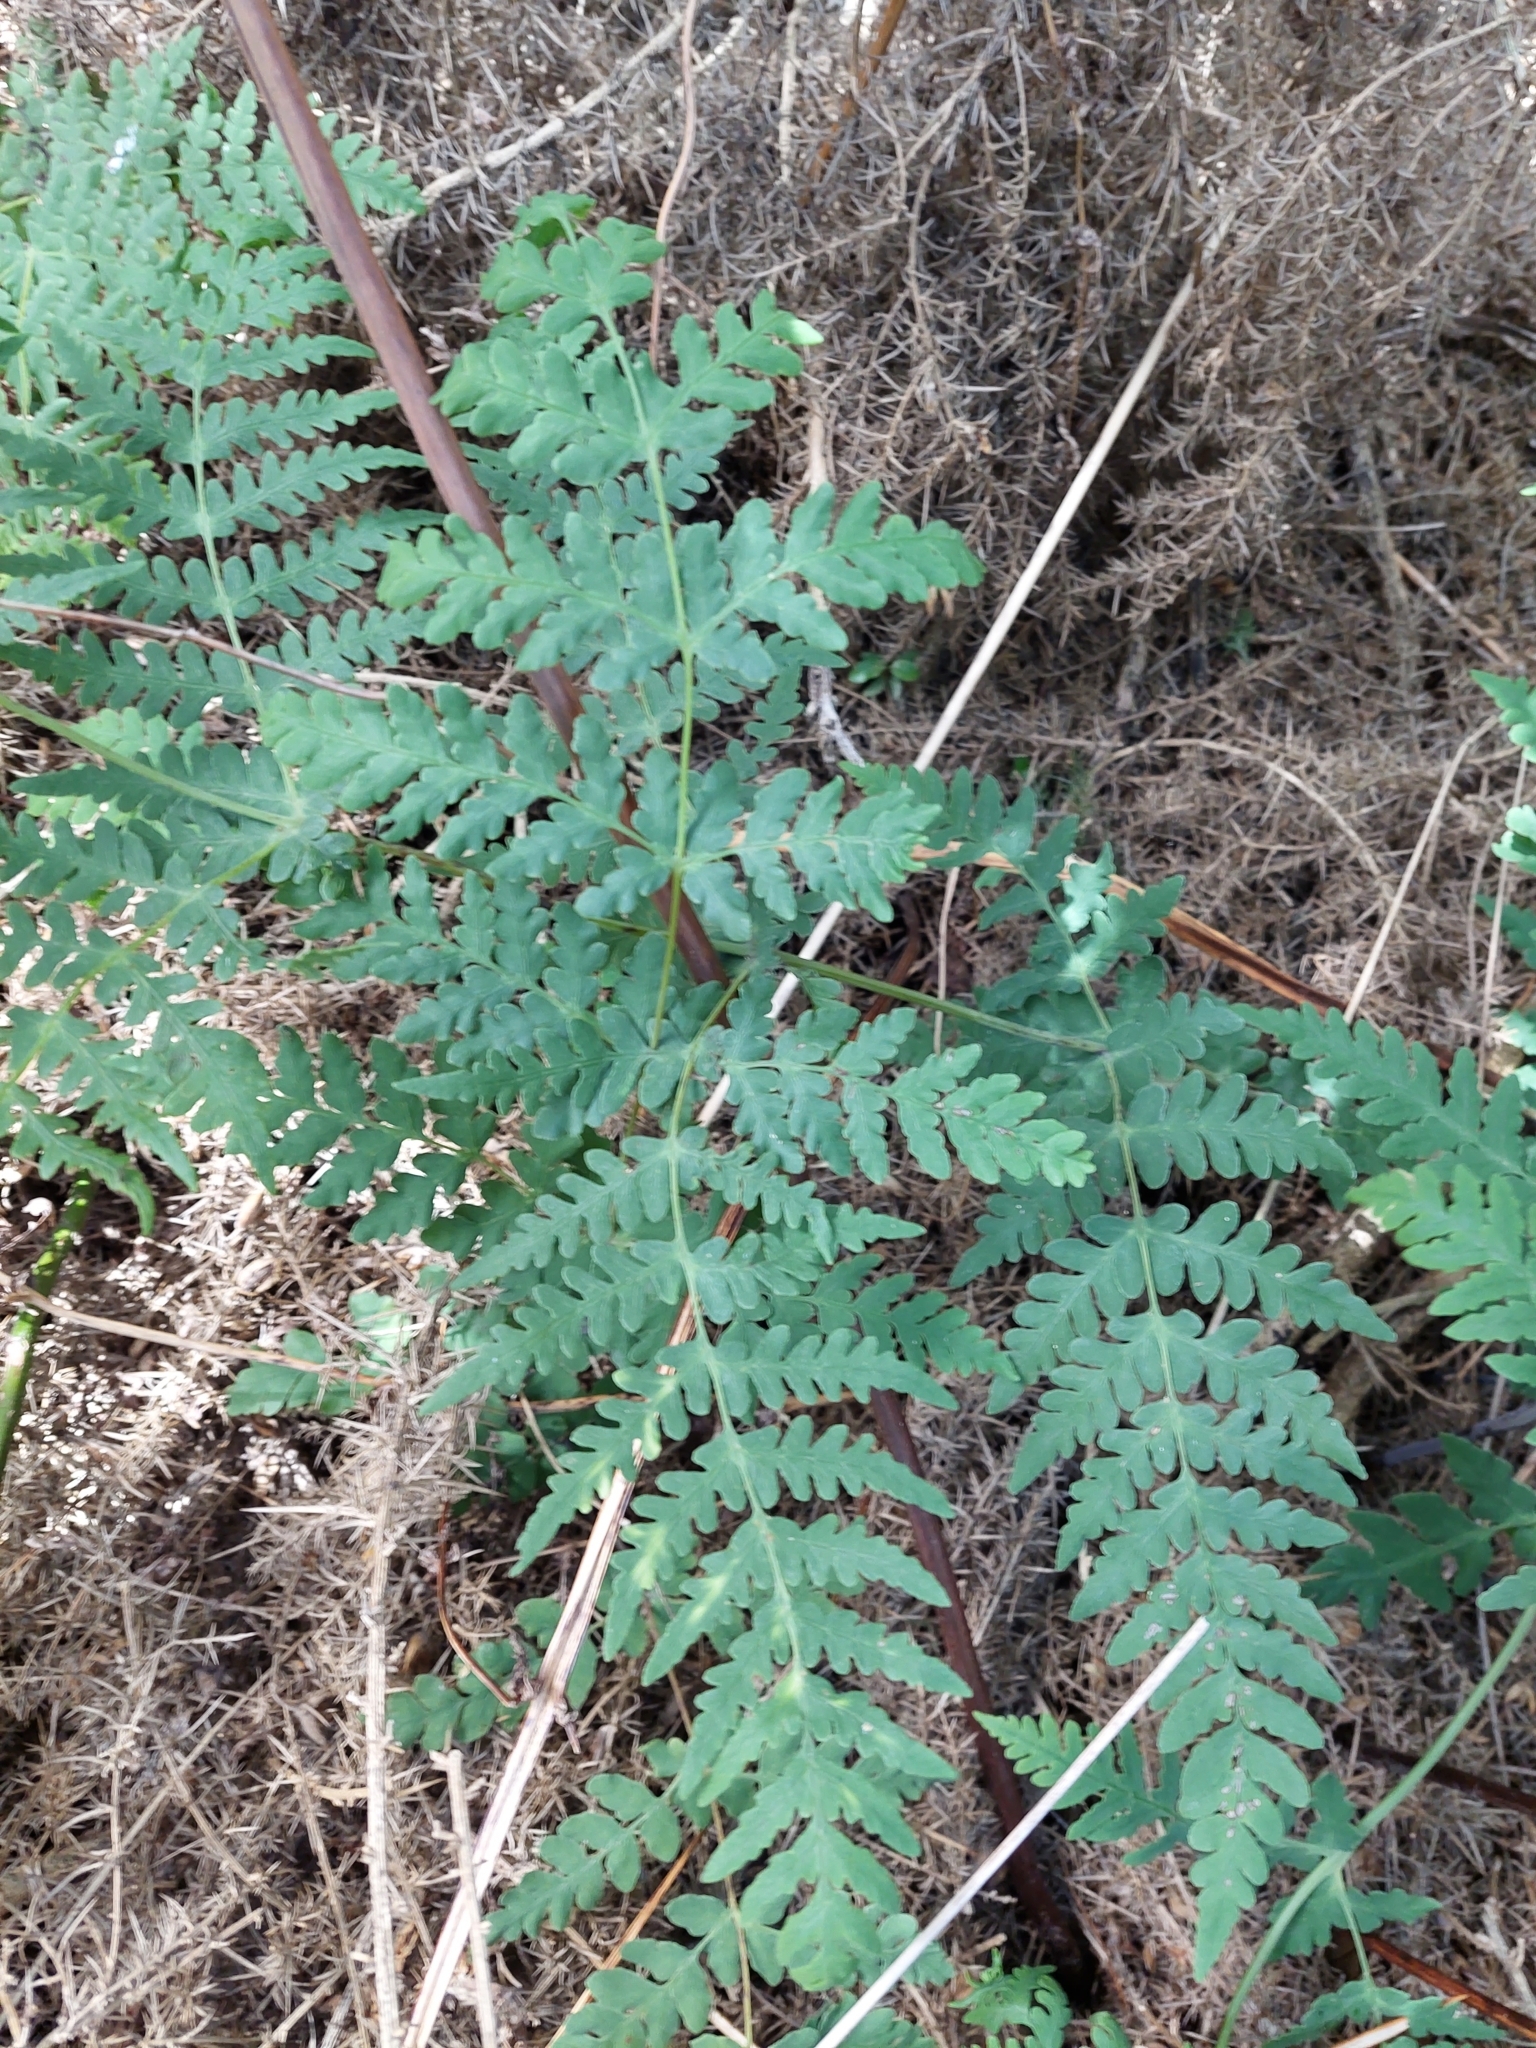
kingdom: Plantae
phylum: Tracheophyta
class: Polypodiopsida
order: Polypodiales
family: Dennstaedtiaceae
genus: Histiopteris
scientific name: Histiopteris incisa
